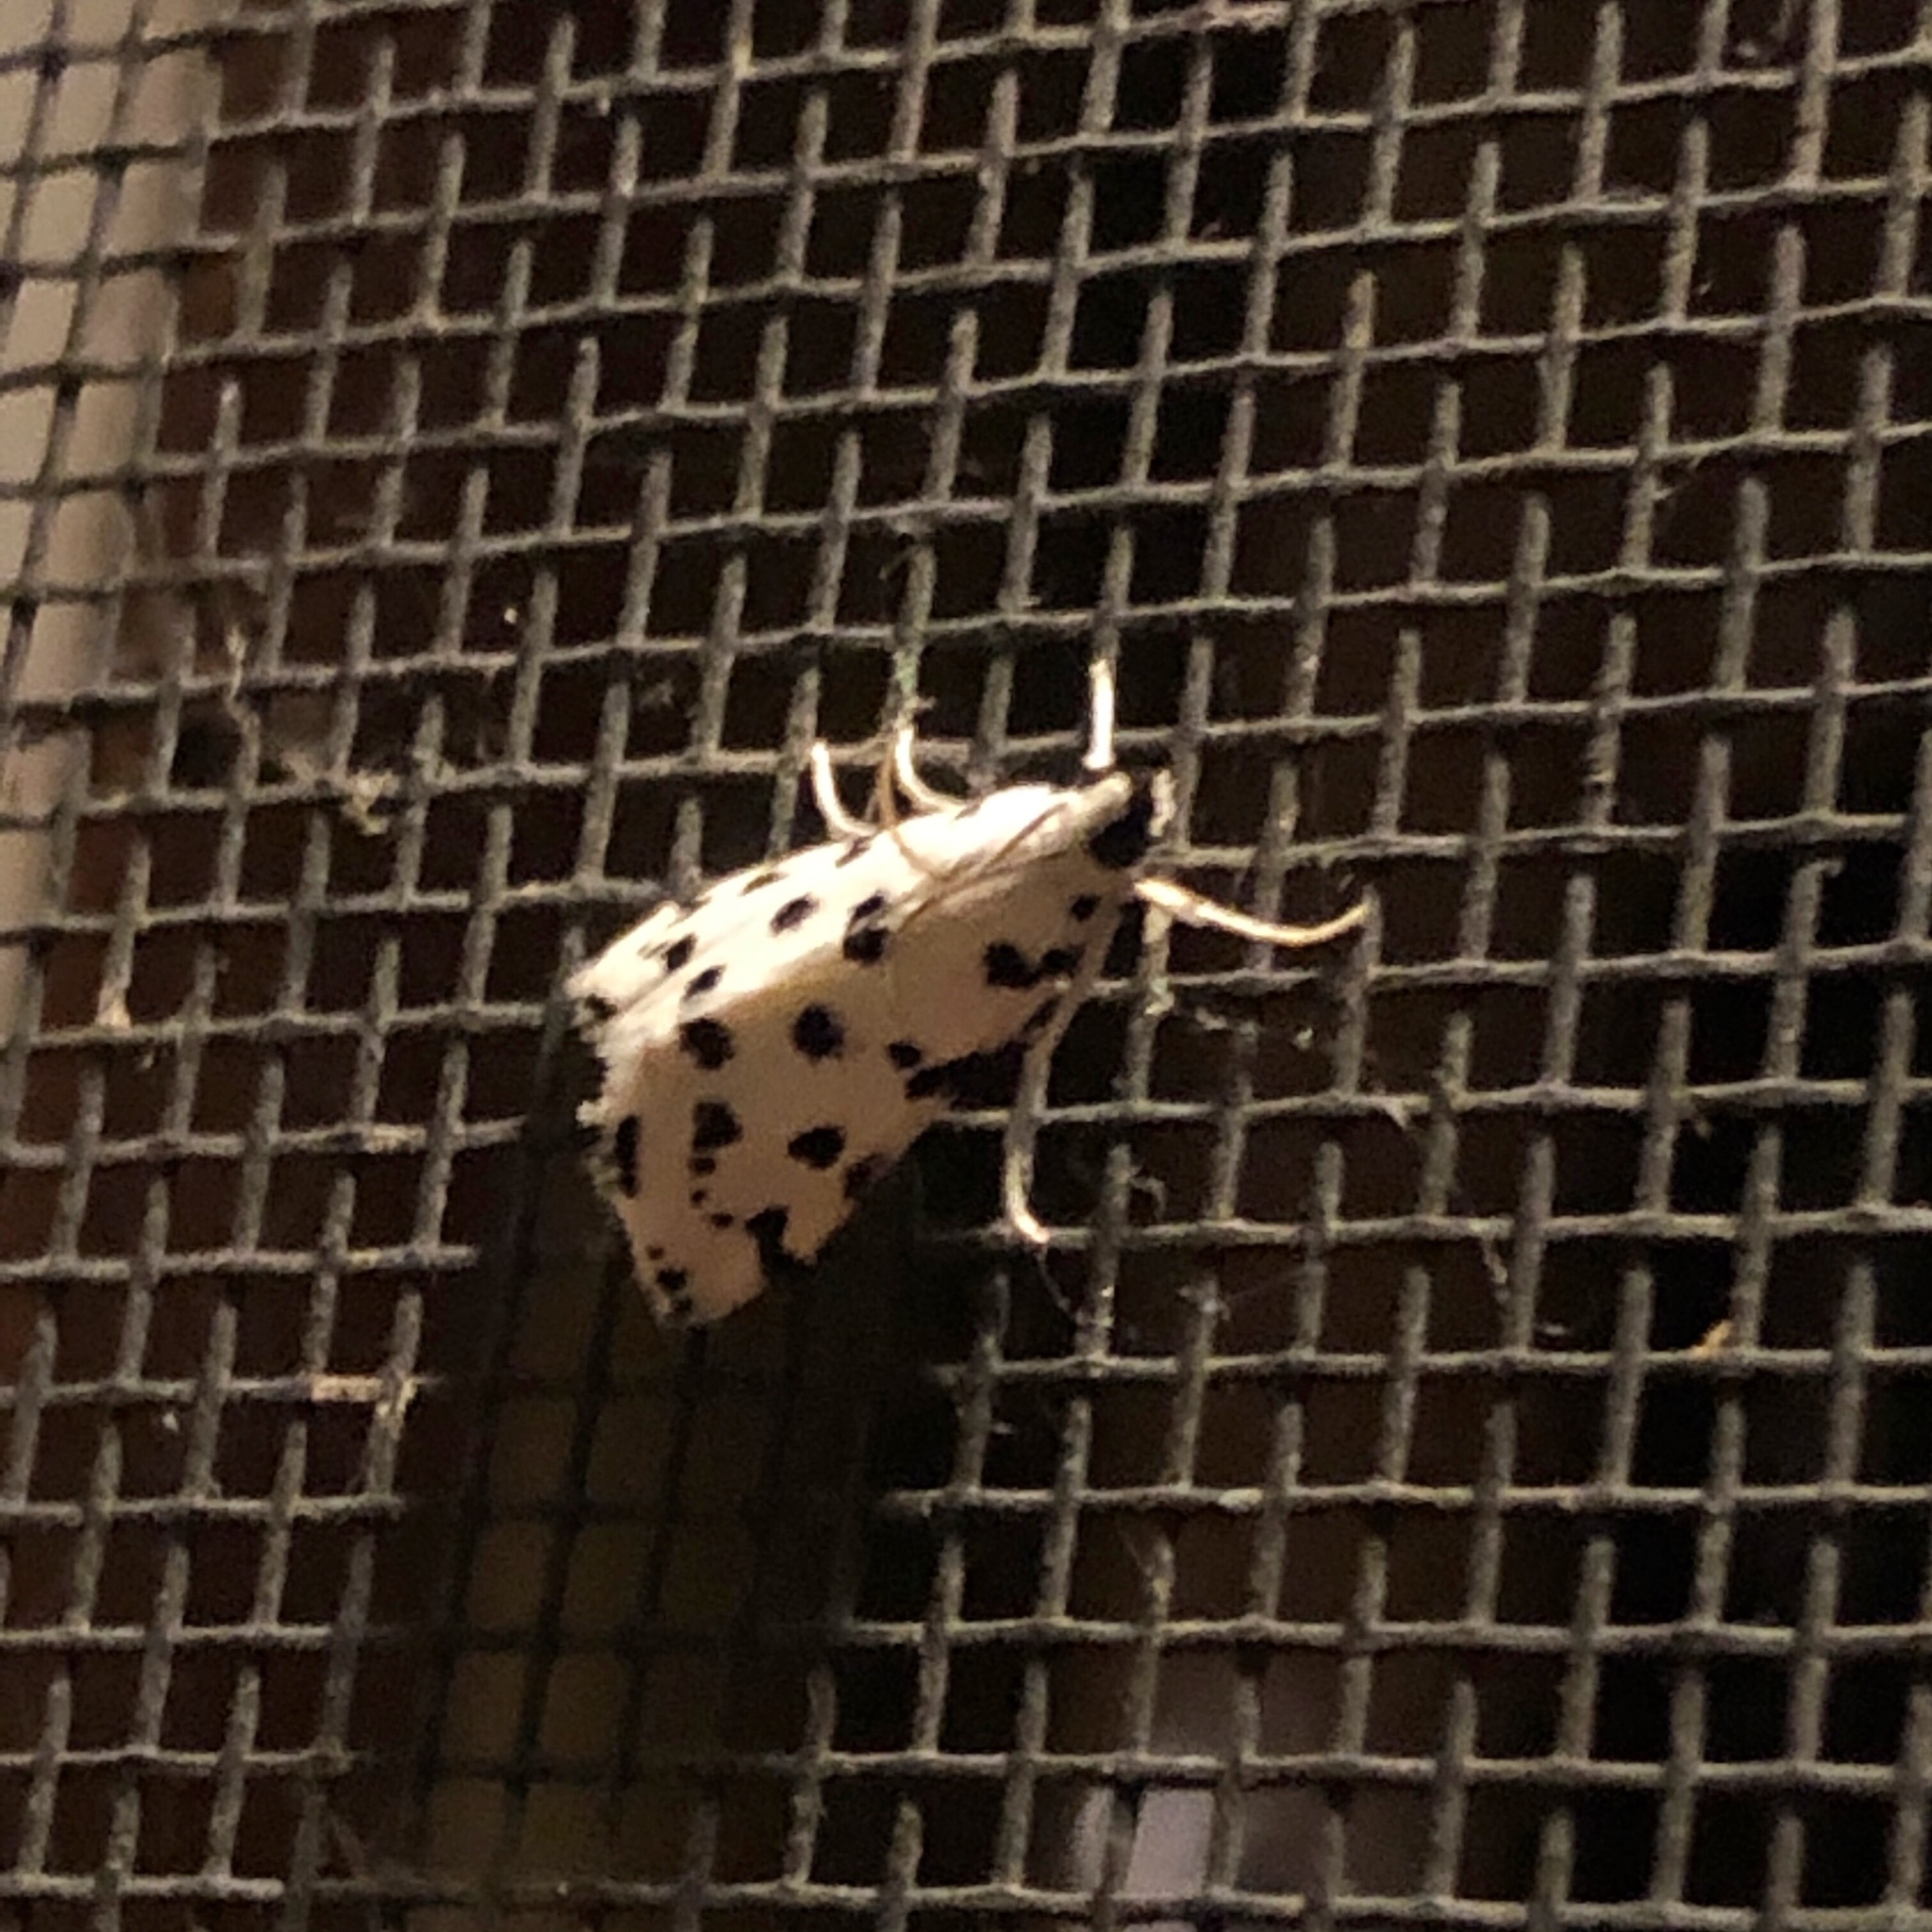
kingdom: Animalia
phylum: Arthropoda
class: Insecta
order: Lepidoptera
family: Crambidae
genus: Eustixia
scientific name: Eustixia pupula
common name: American cabbage pearl
